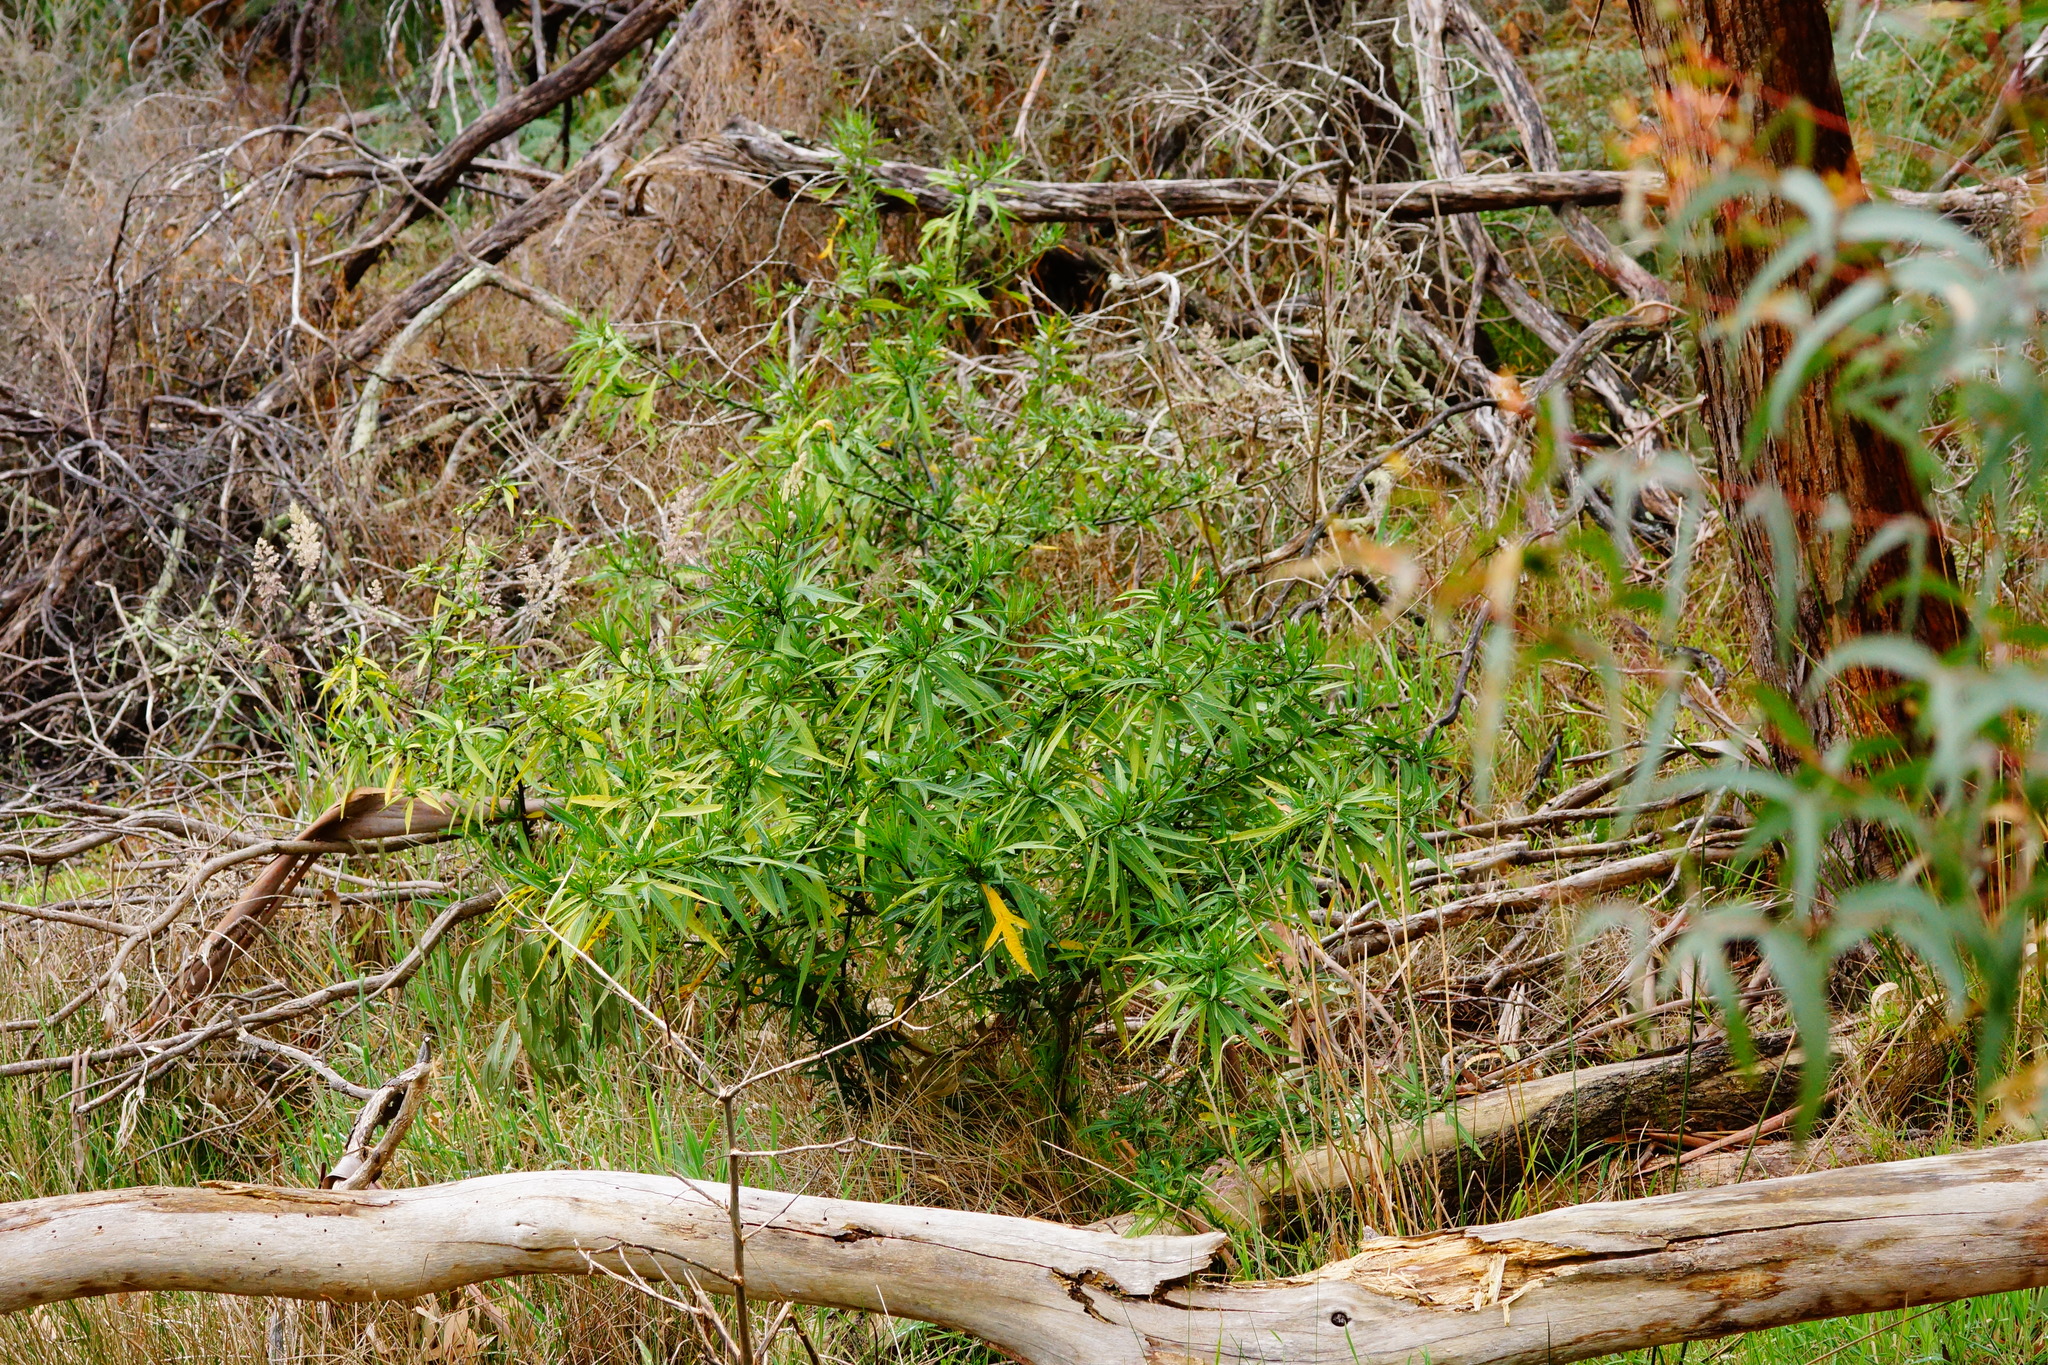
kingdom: Plantae
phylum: Tracheophyta
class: Magnoliopsida
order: Solanales
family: Solanaceae
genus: Solanum
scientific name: Solanum laciniatum
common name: Kangaroo-apple
